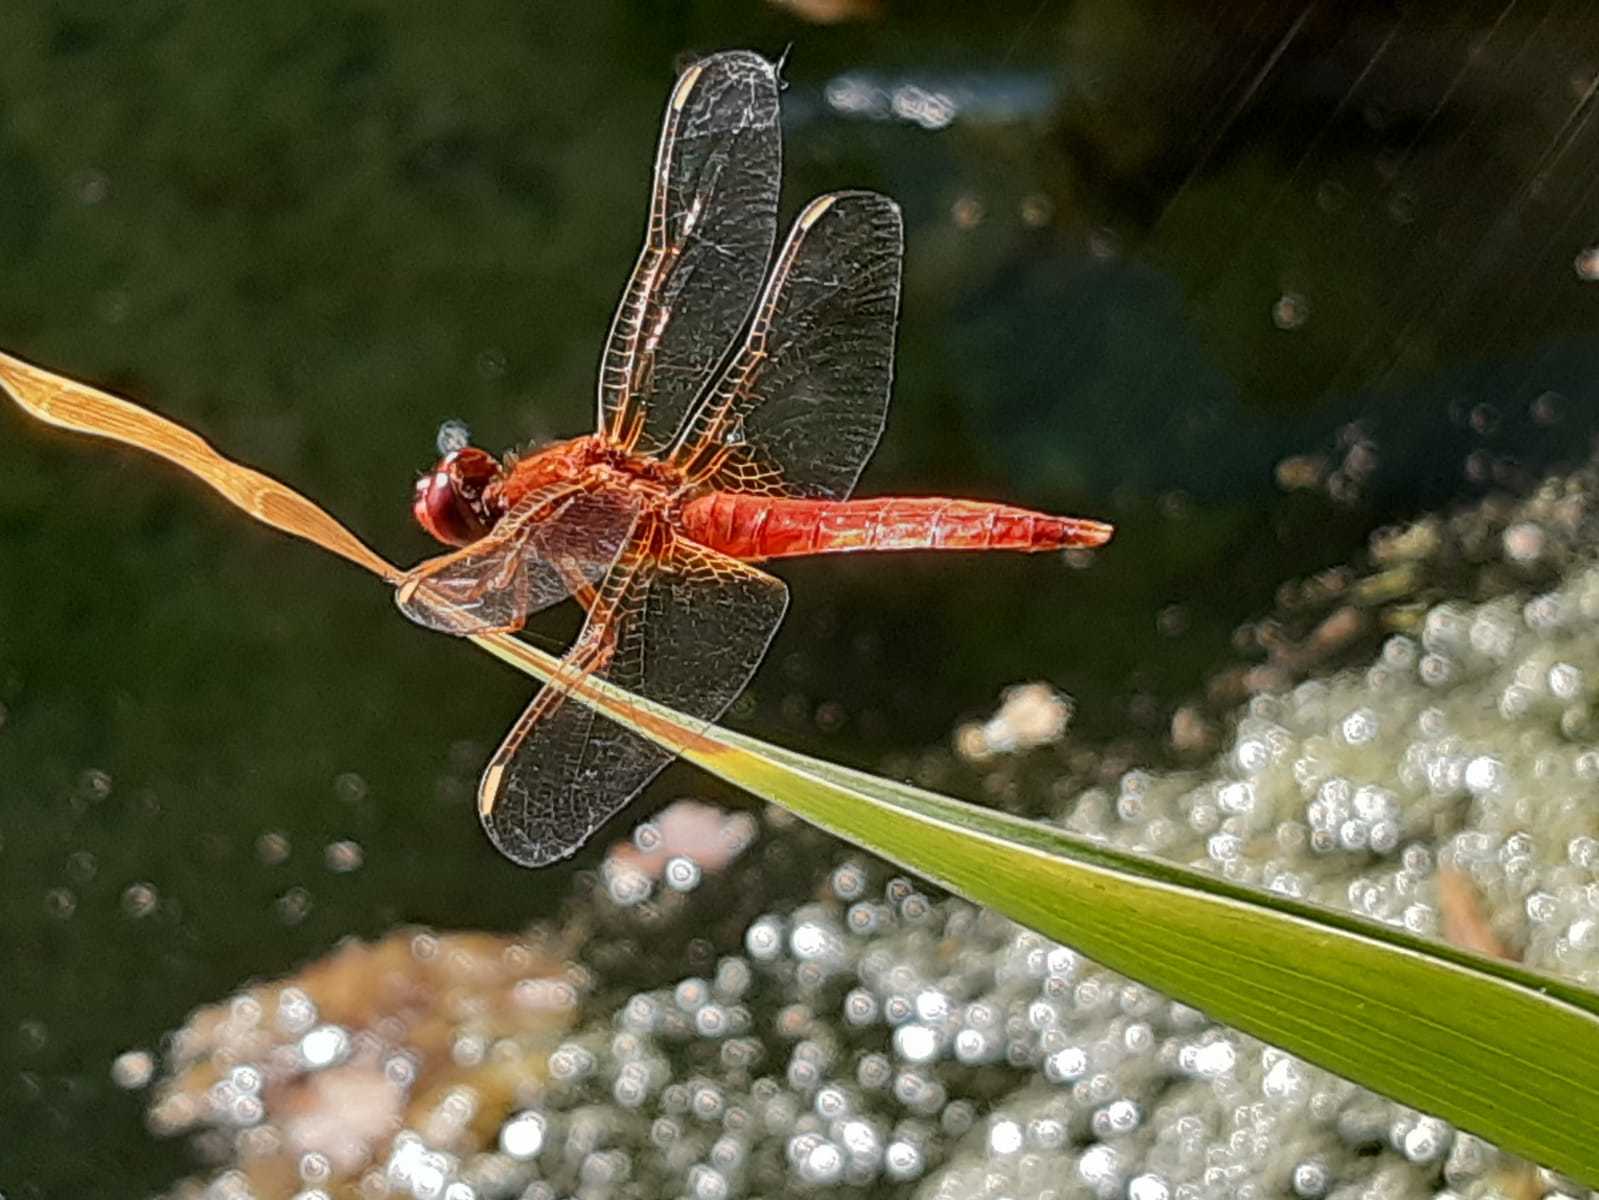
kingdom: Animalia
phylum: Arthropoda
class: Insecta
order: Odonata
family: Libellulidae
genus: Crocothemis
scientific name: Crocothemis erythraea
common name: Scarlet dragonfly
